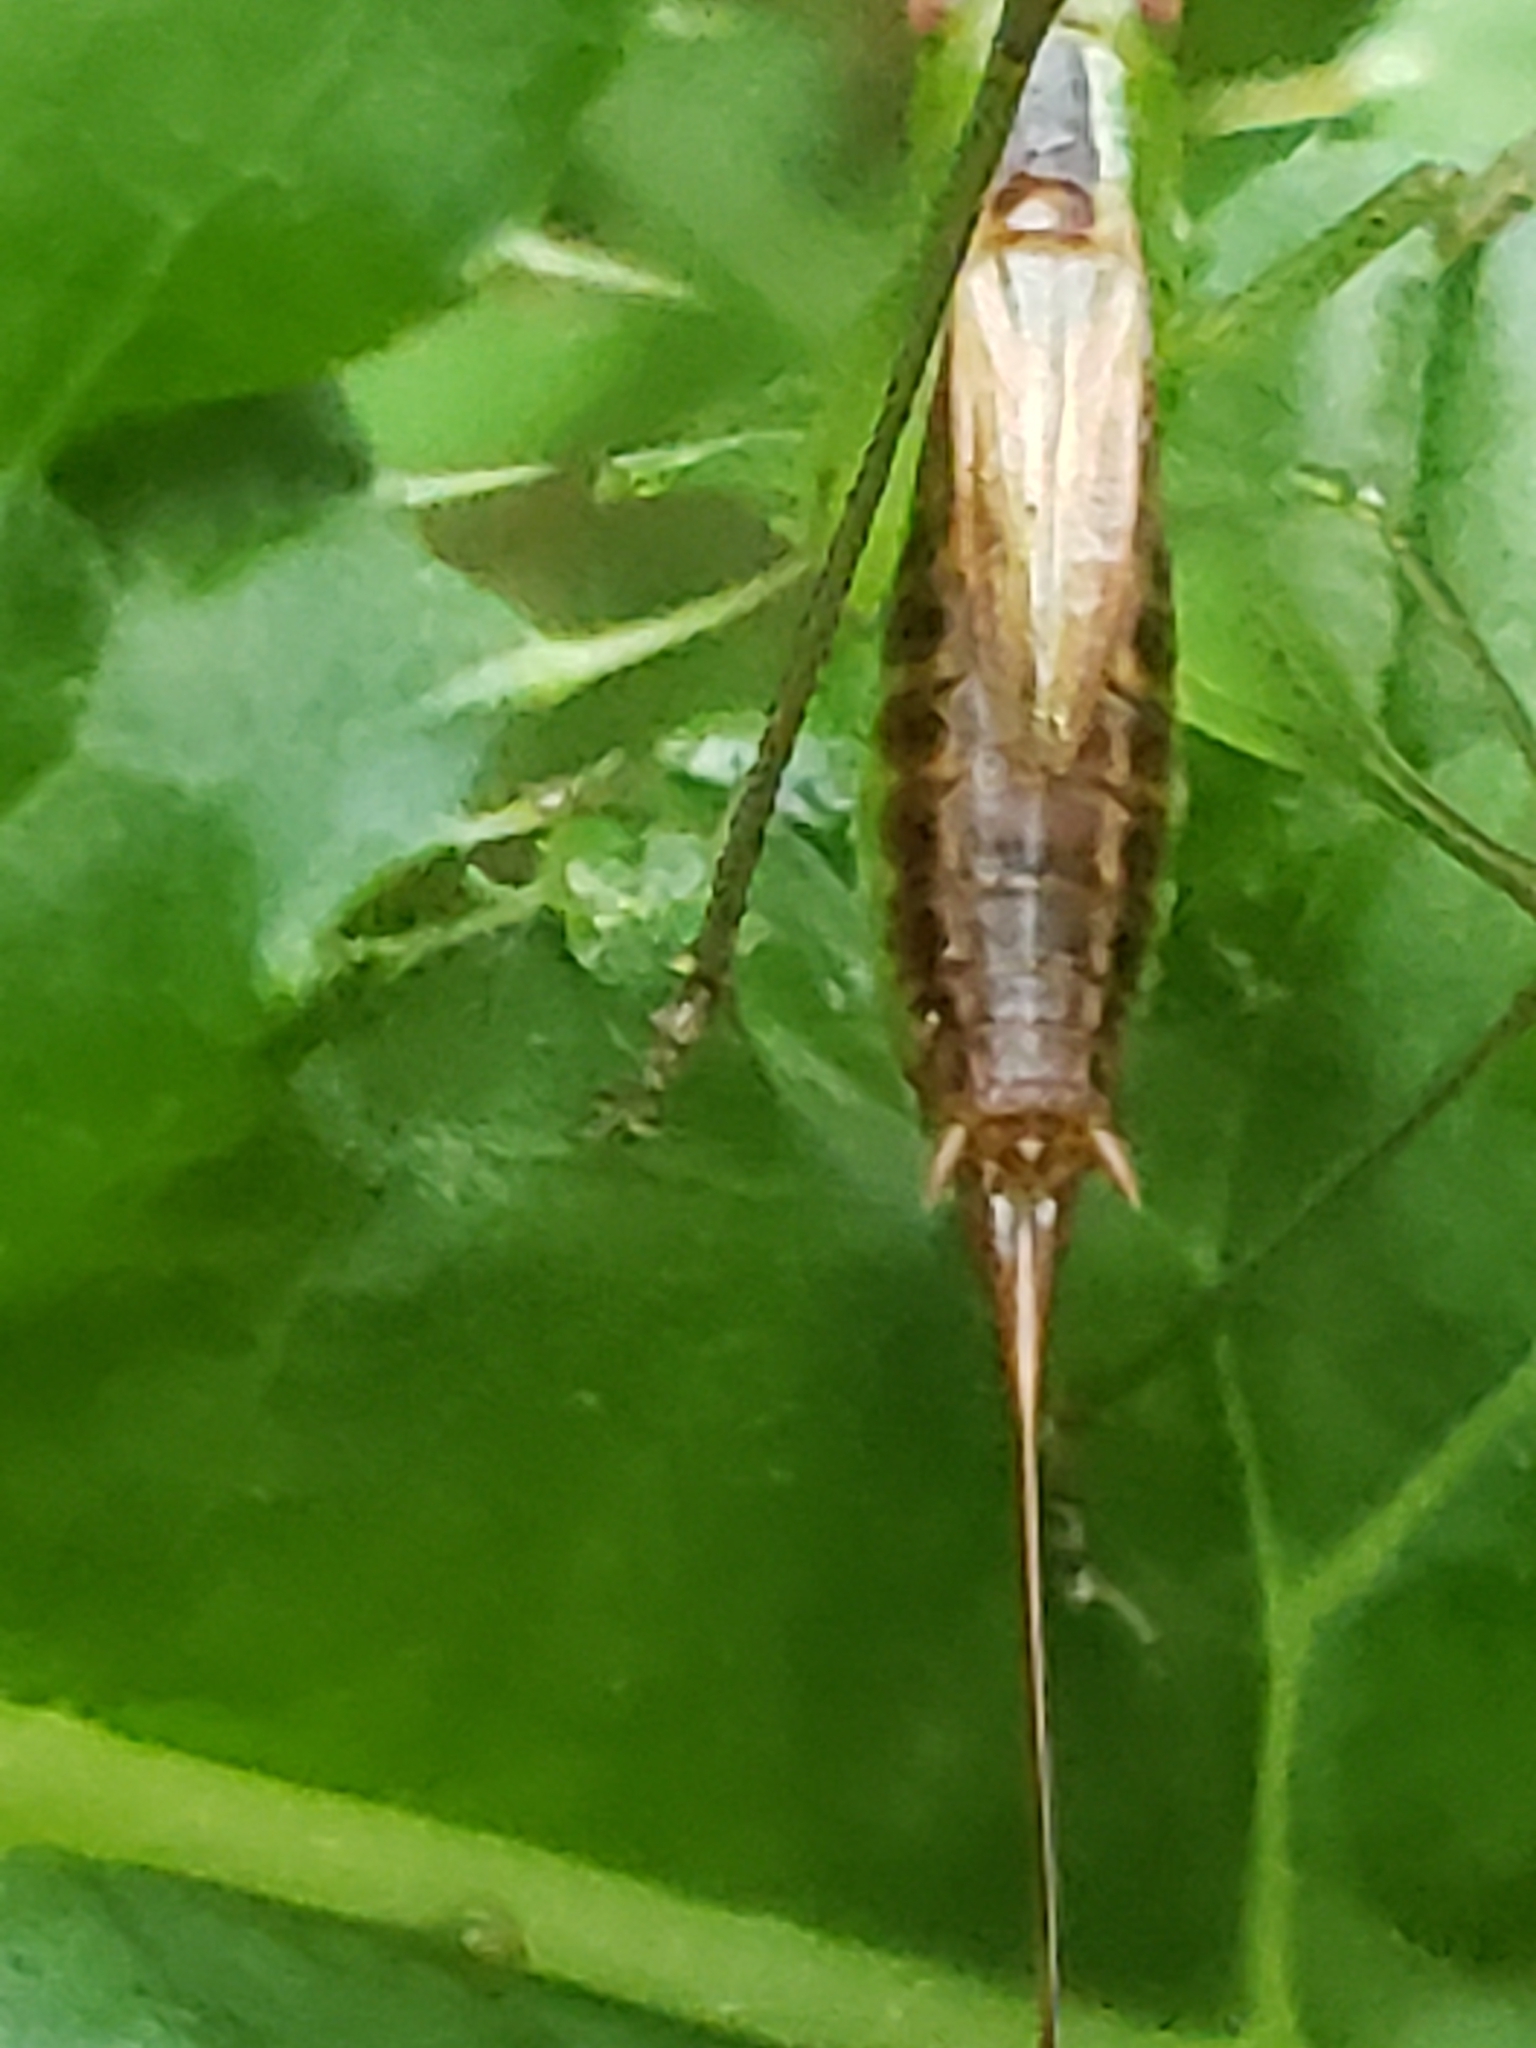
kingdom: Animalia
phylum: Arthropoda
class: Insecta
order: Orthoptera
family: Tettigoniidae
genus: Conocephalus
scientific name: Conocephalus brevipennis
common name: Short-winged meadow katydid
